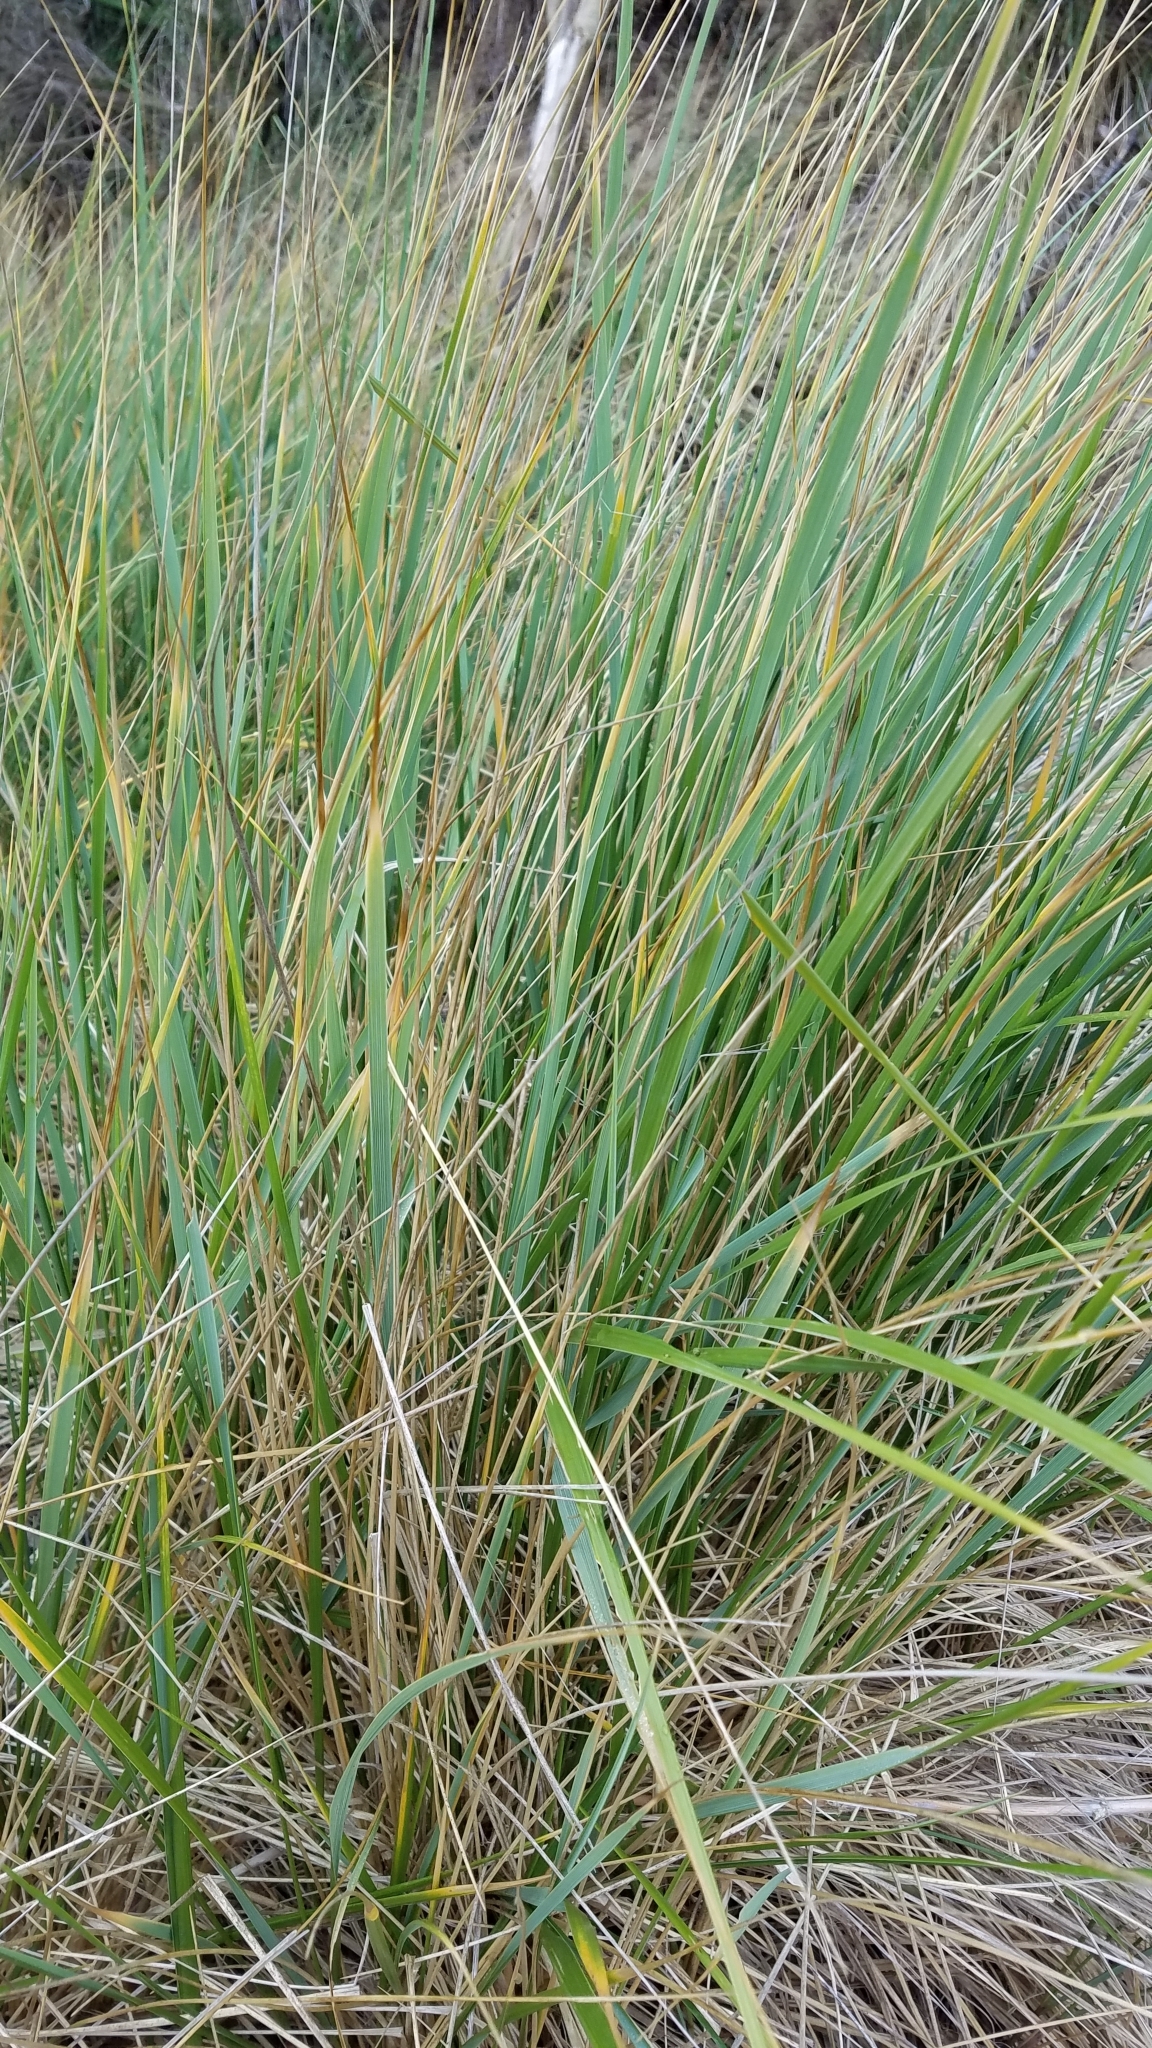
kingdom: Plantae
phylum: Tracheophyta
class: Liliopsida
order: Poales
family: Poaceae
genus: Calamagrostis
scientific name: Calamagrostis breviligulata
